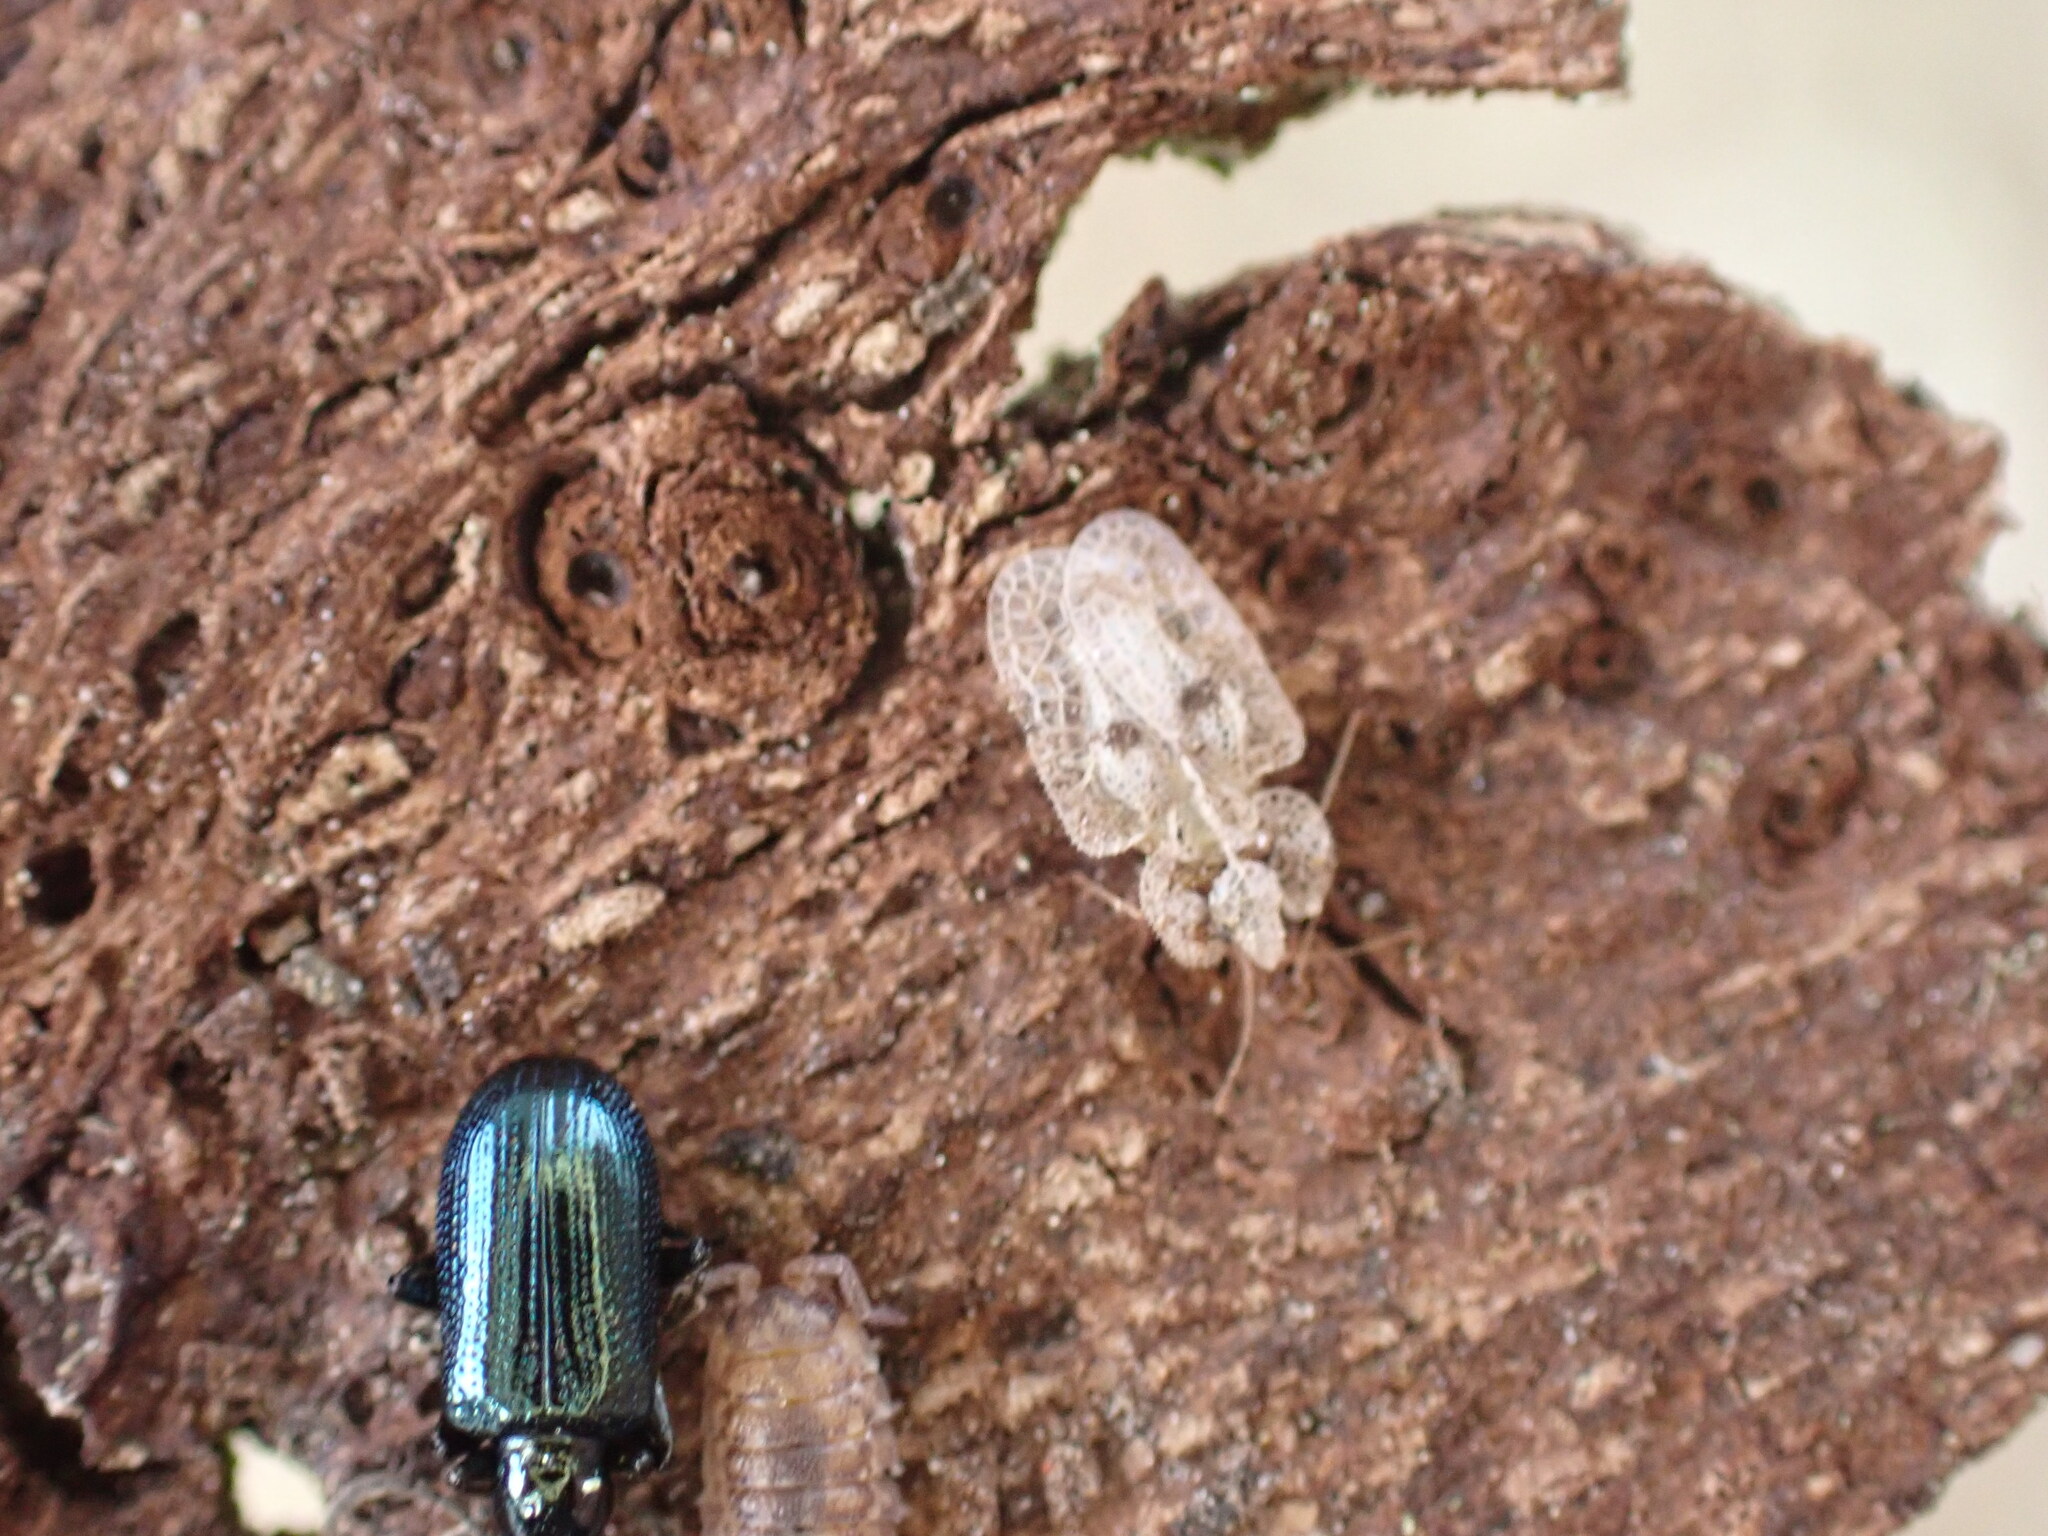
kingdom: Animalia
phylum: Arthropoda
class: Insecta
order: Hemiptera
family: Tingidae
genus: Corythucha
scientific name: Corythucha ciliata
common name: Sycamore lace bug
